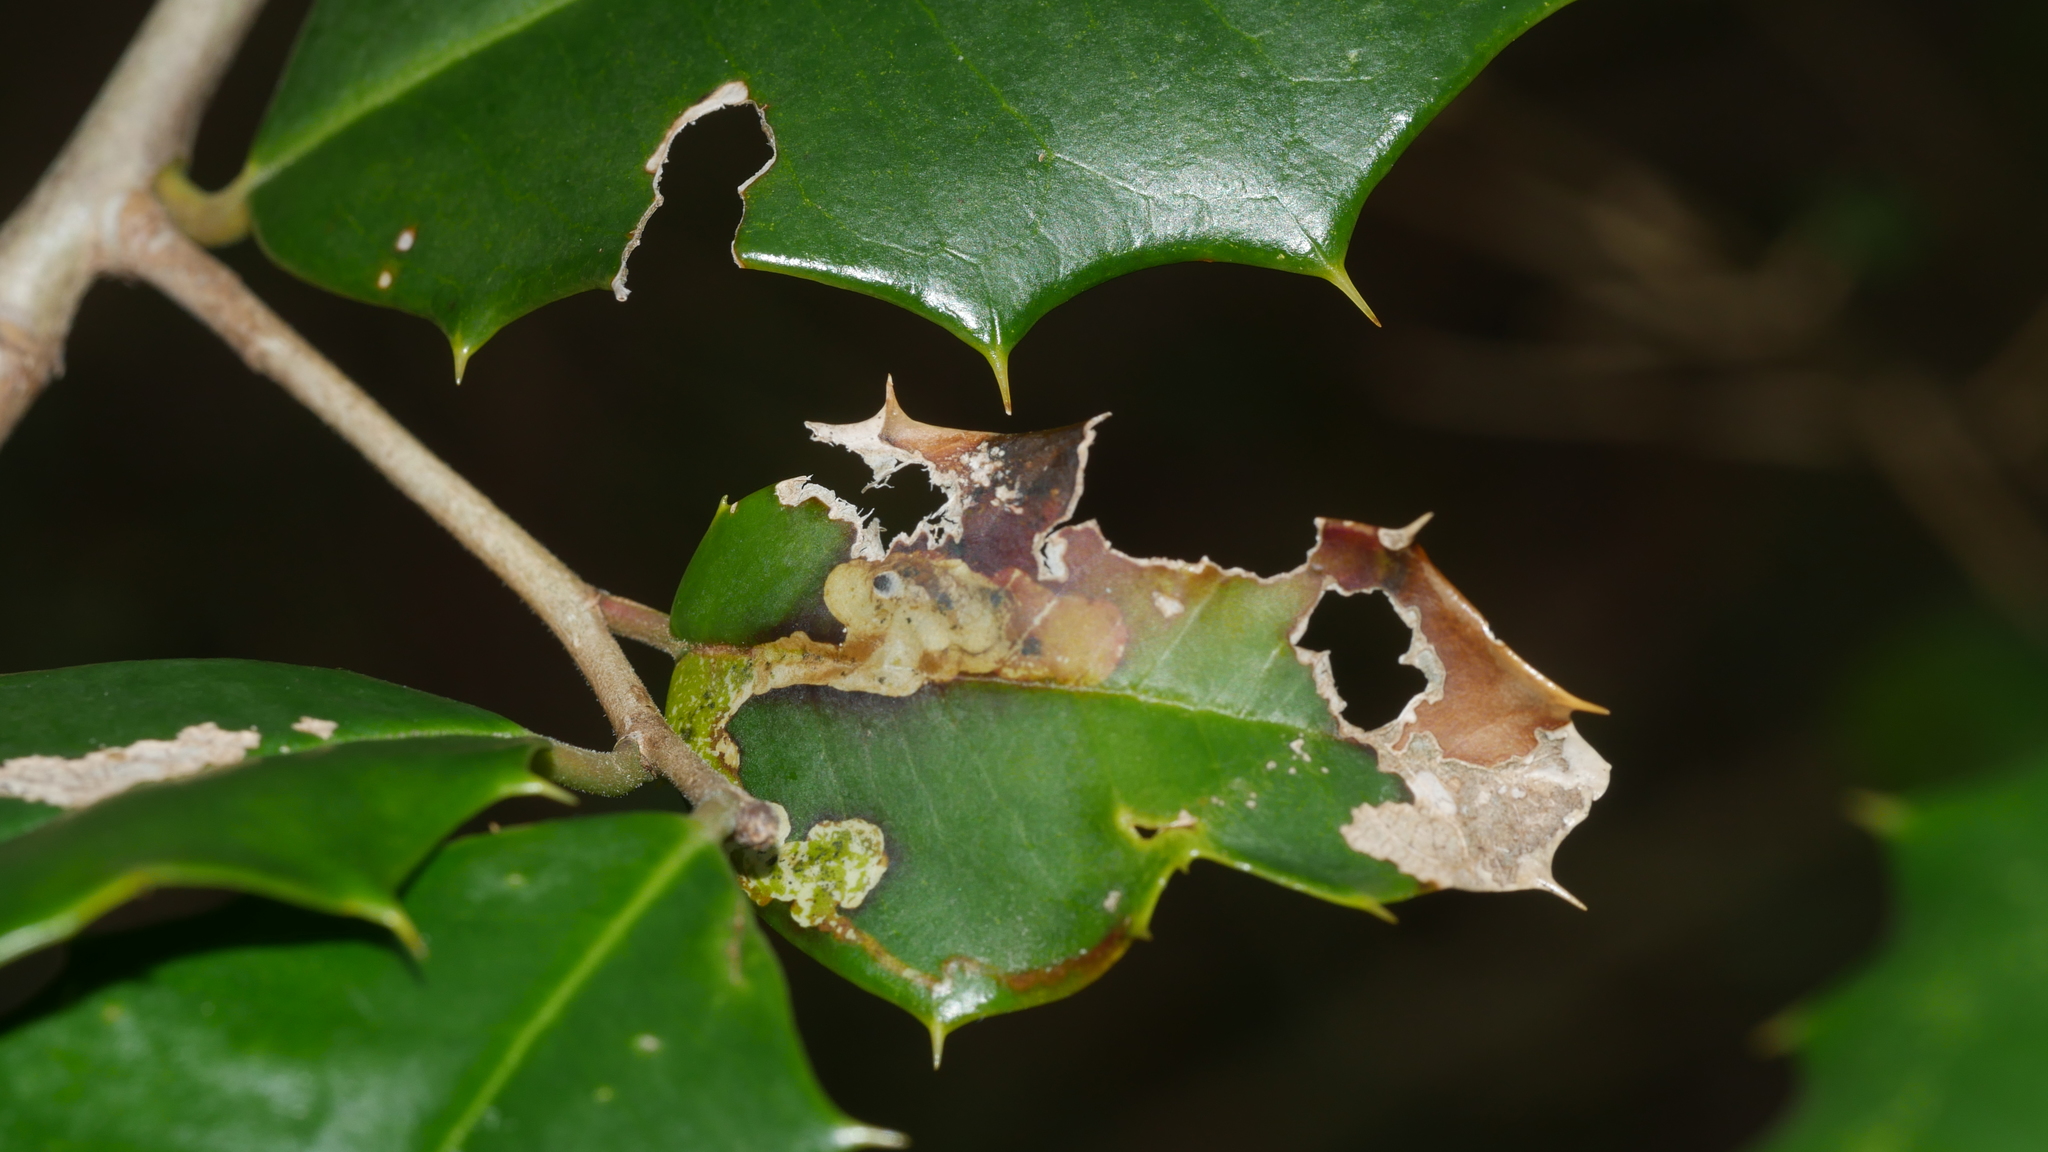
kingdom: Animalia
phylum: Arthropoda
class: Insecta
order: Diptera
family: Agromyzidae
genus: Phytomyza
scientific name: Phytomyza ilicicola
